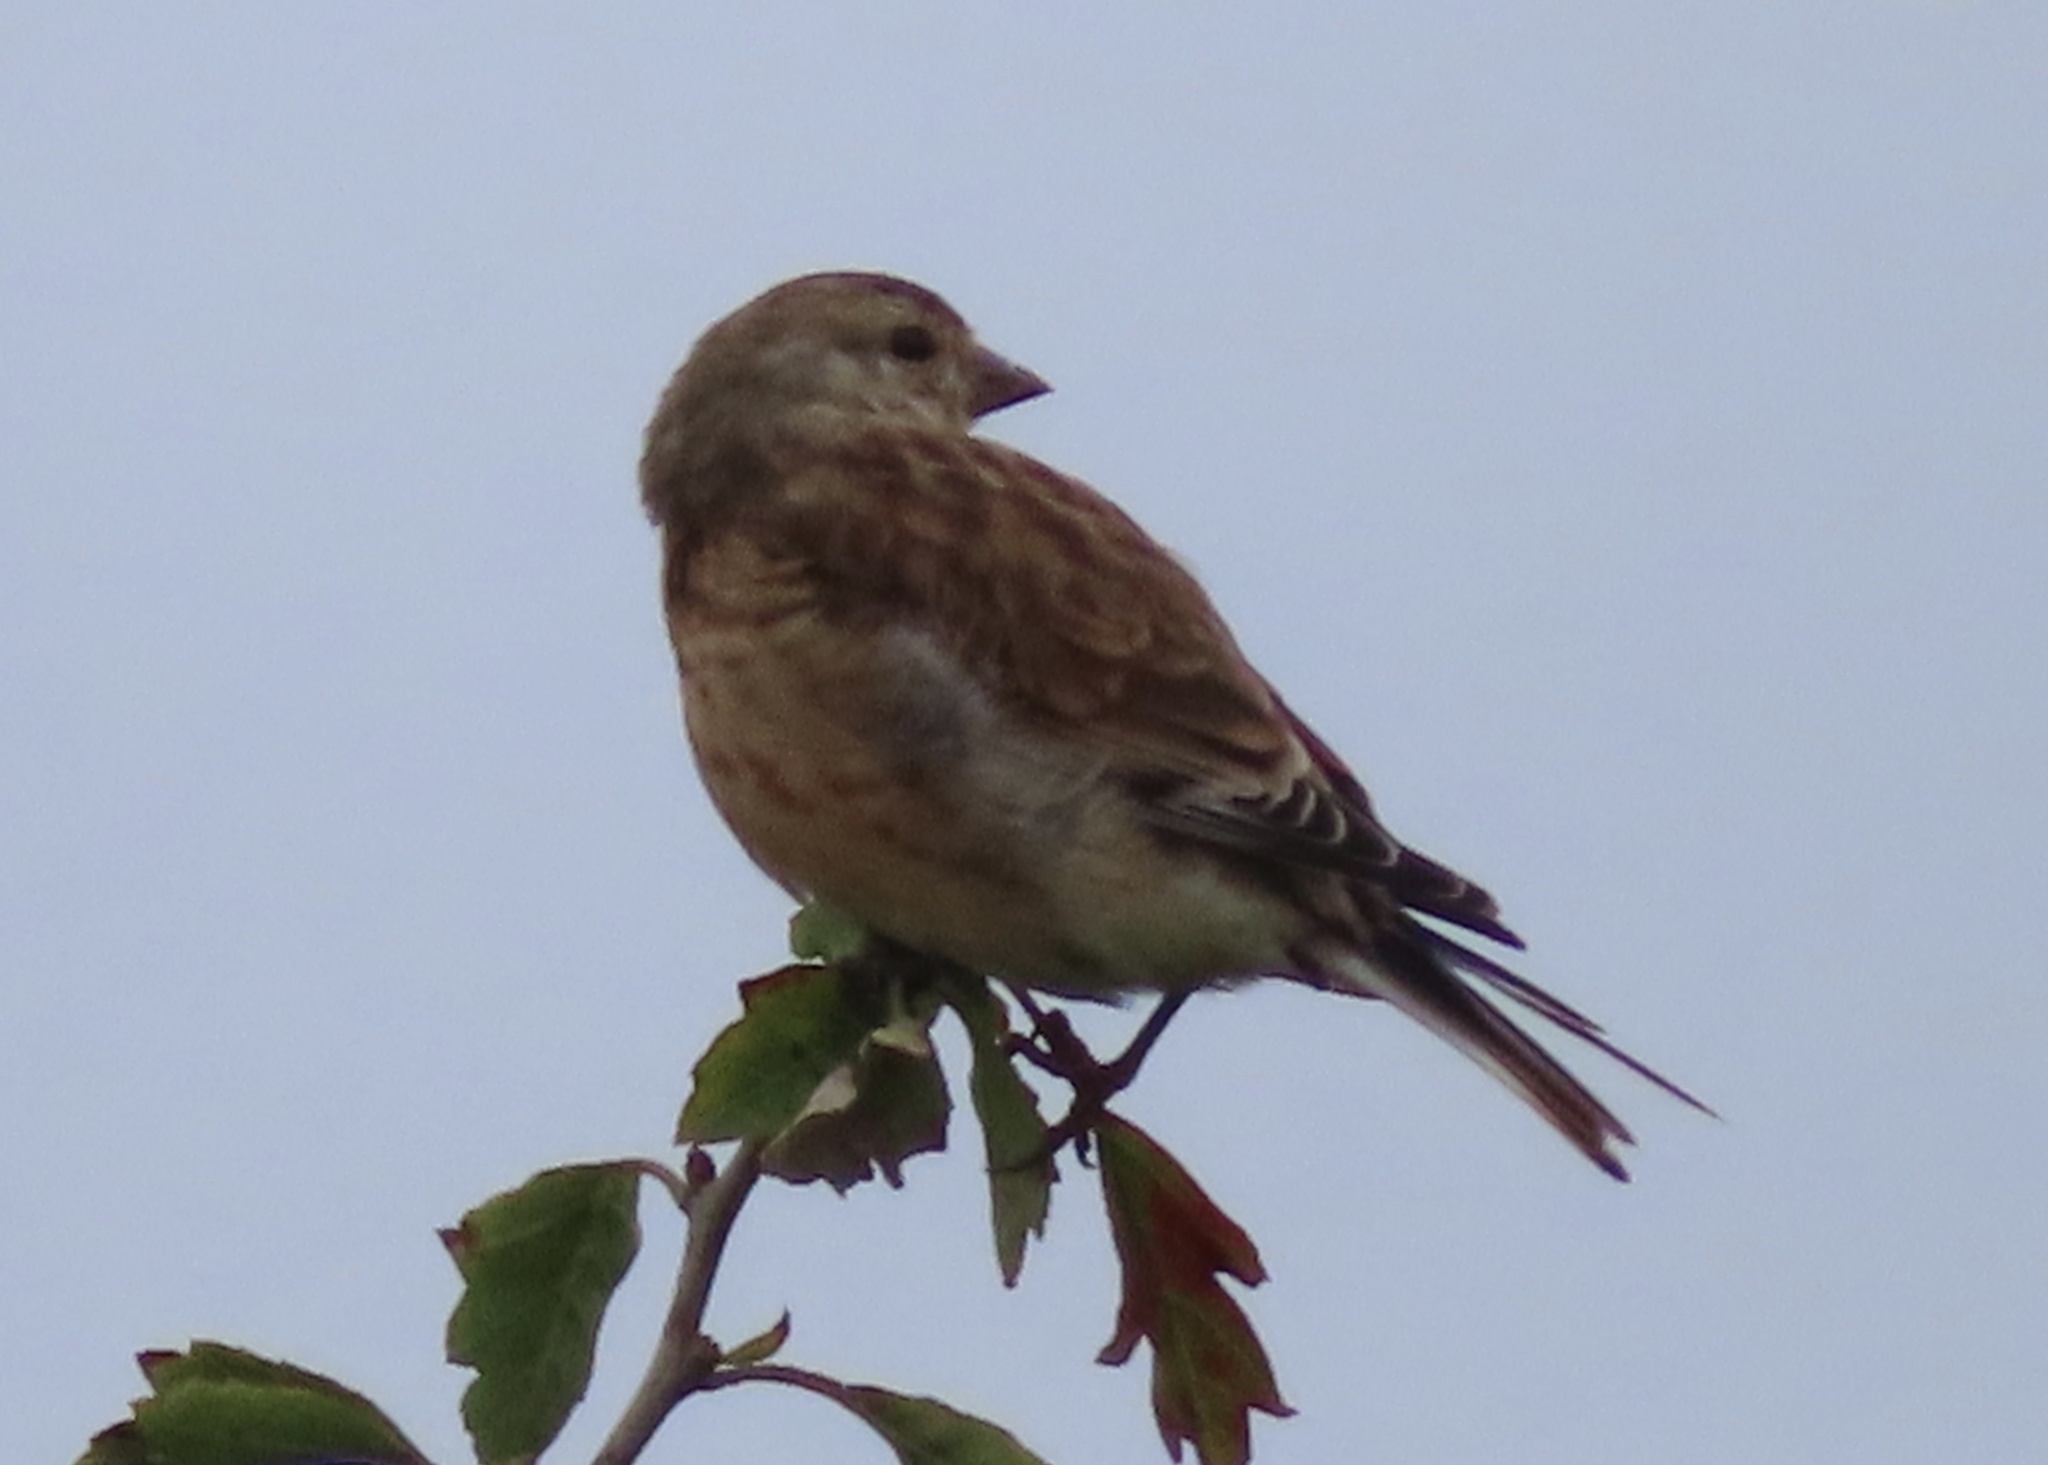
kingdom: Animalia
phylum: Chordata
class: Aves
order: Passeriformes
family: Fringillidae
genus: Linaria
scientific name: Linaria cannabina
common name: Common linnet
